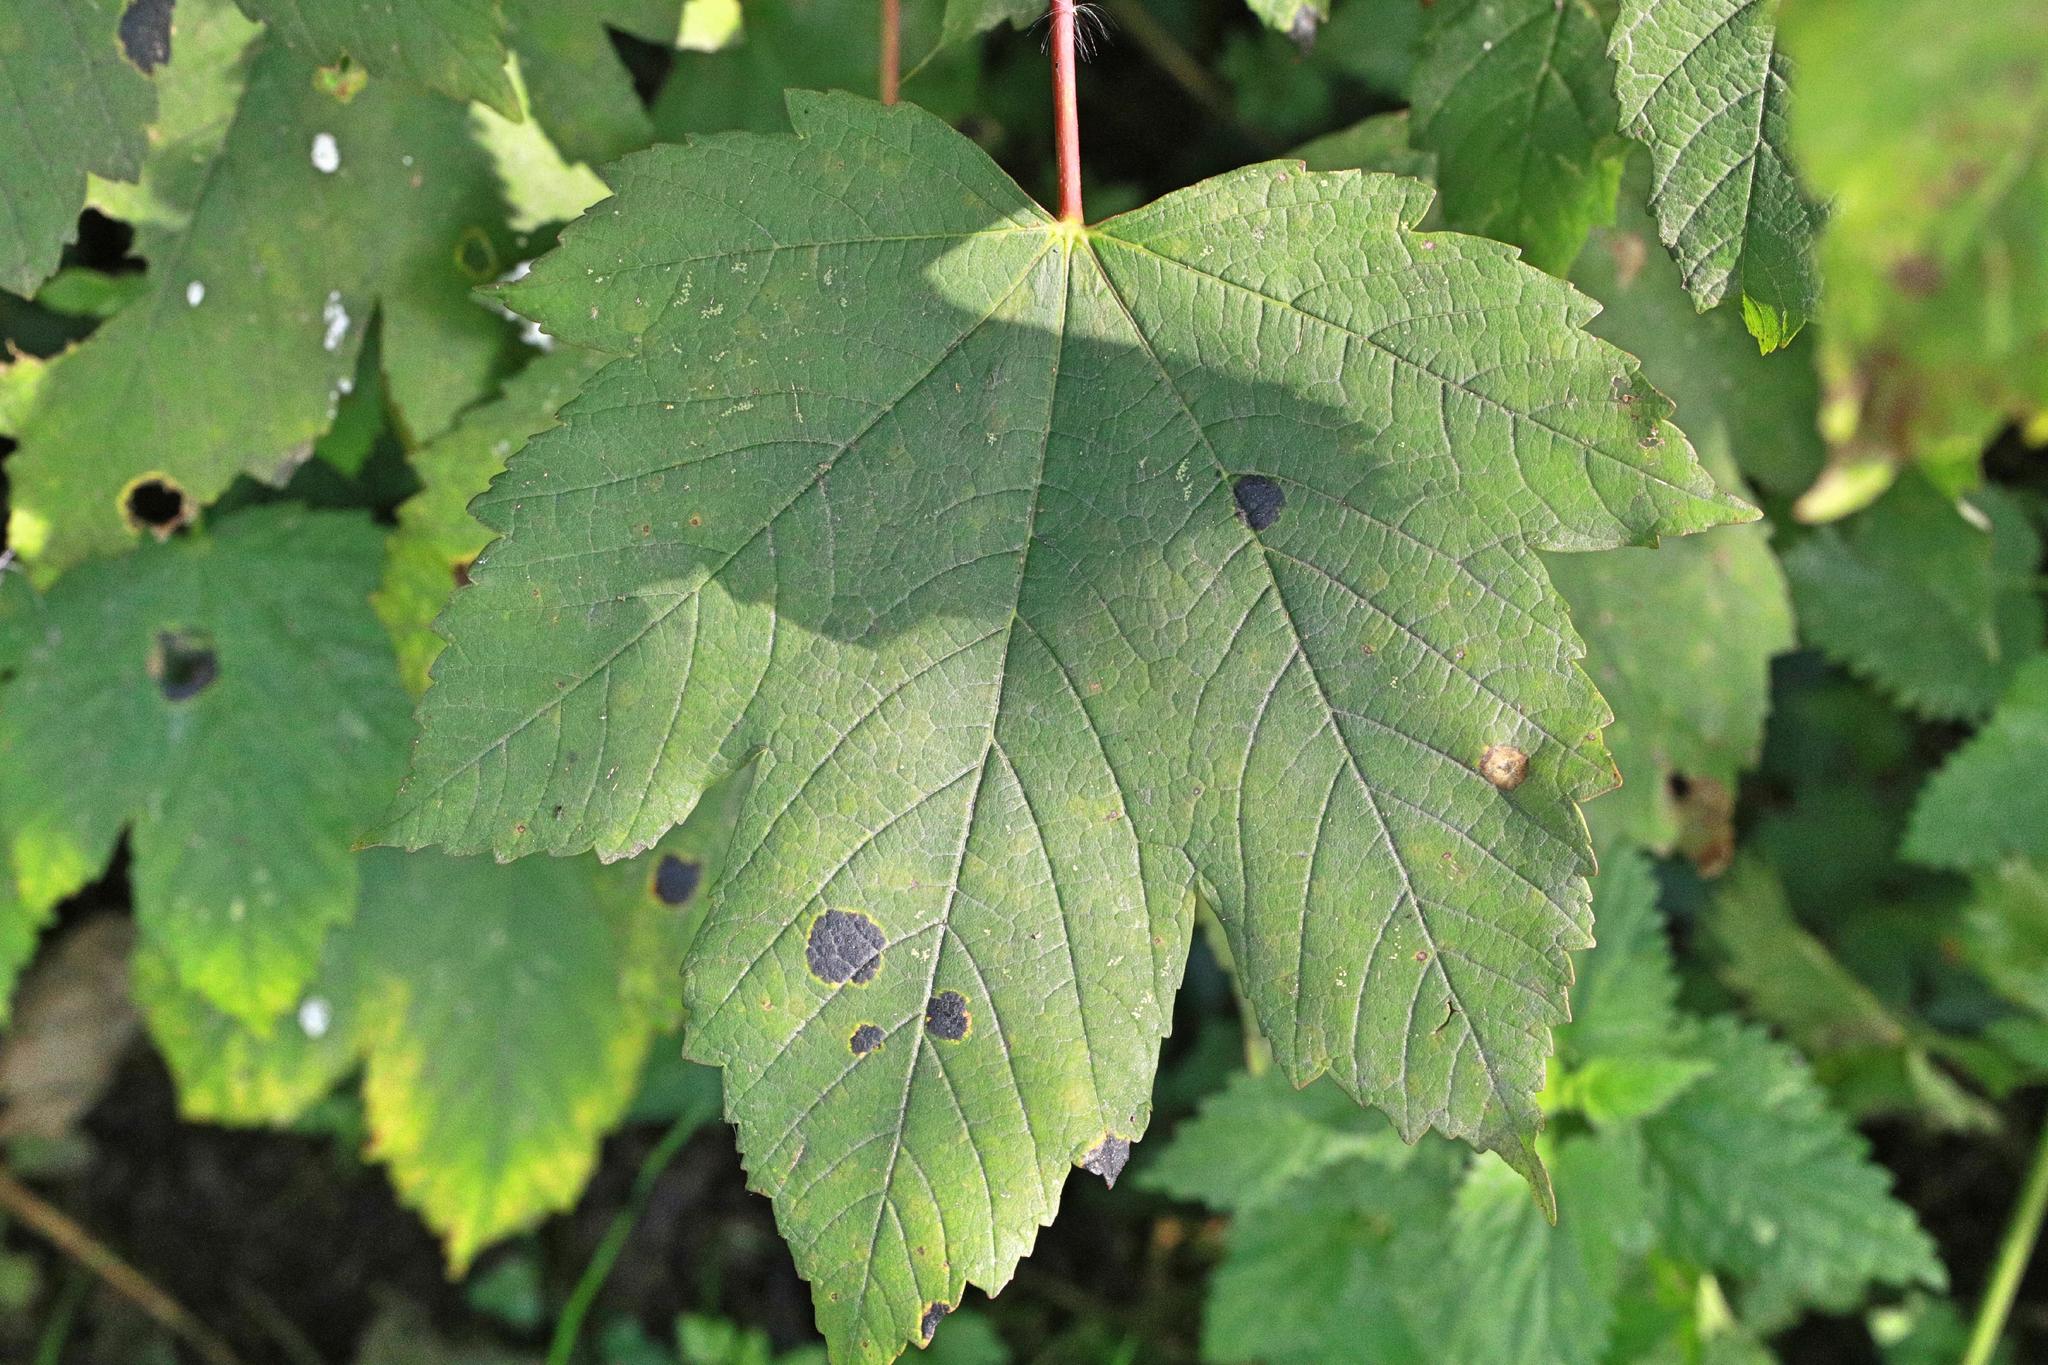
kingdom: Fungi
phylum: Ascomycota
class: Leotiomycetes
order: Rhytismatales
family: Rhytismataceae
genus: Rhytisma
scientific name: Rhytisma acerinum
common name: European tar spot
